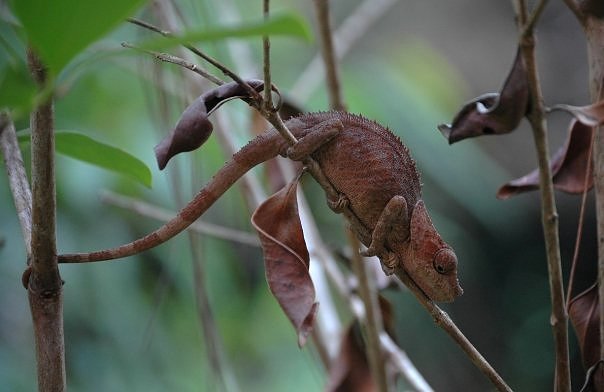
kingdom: Animalia
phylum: Chordata
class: Squamata
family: Chamaeleonidae
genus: Calumma
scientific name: Calumma brevicorne
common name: Short-horned chameleon
